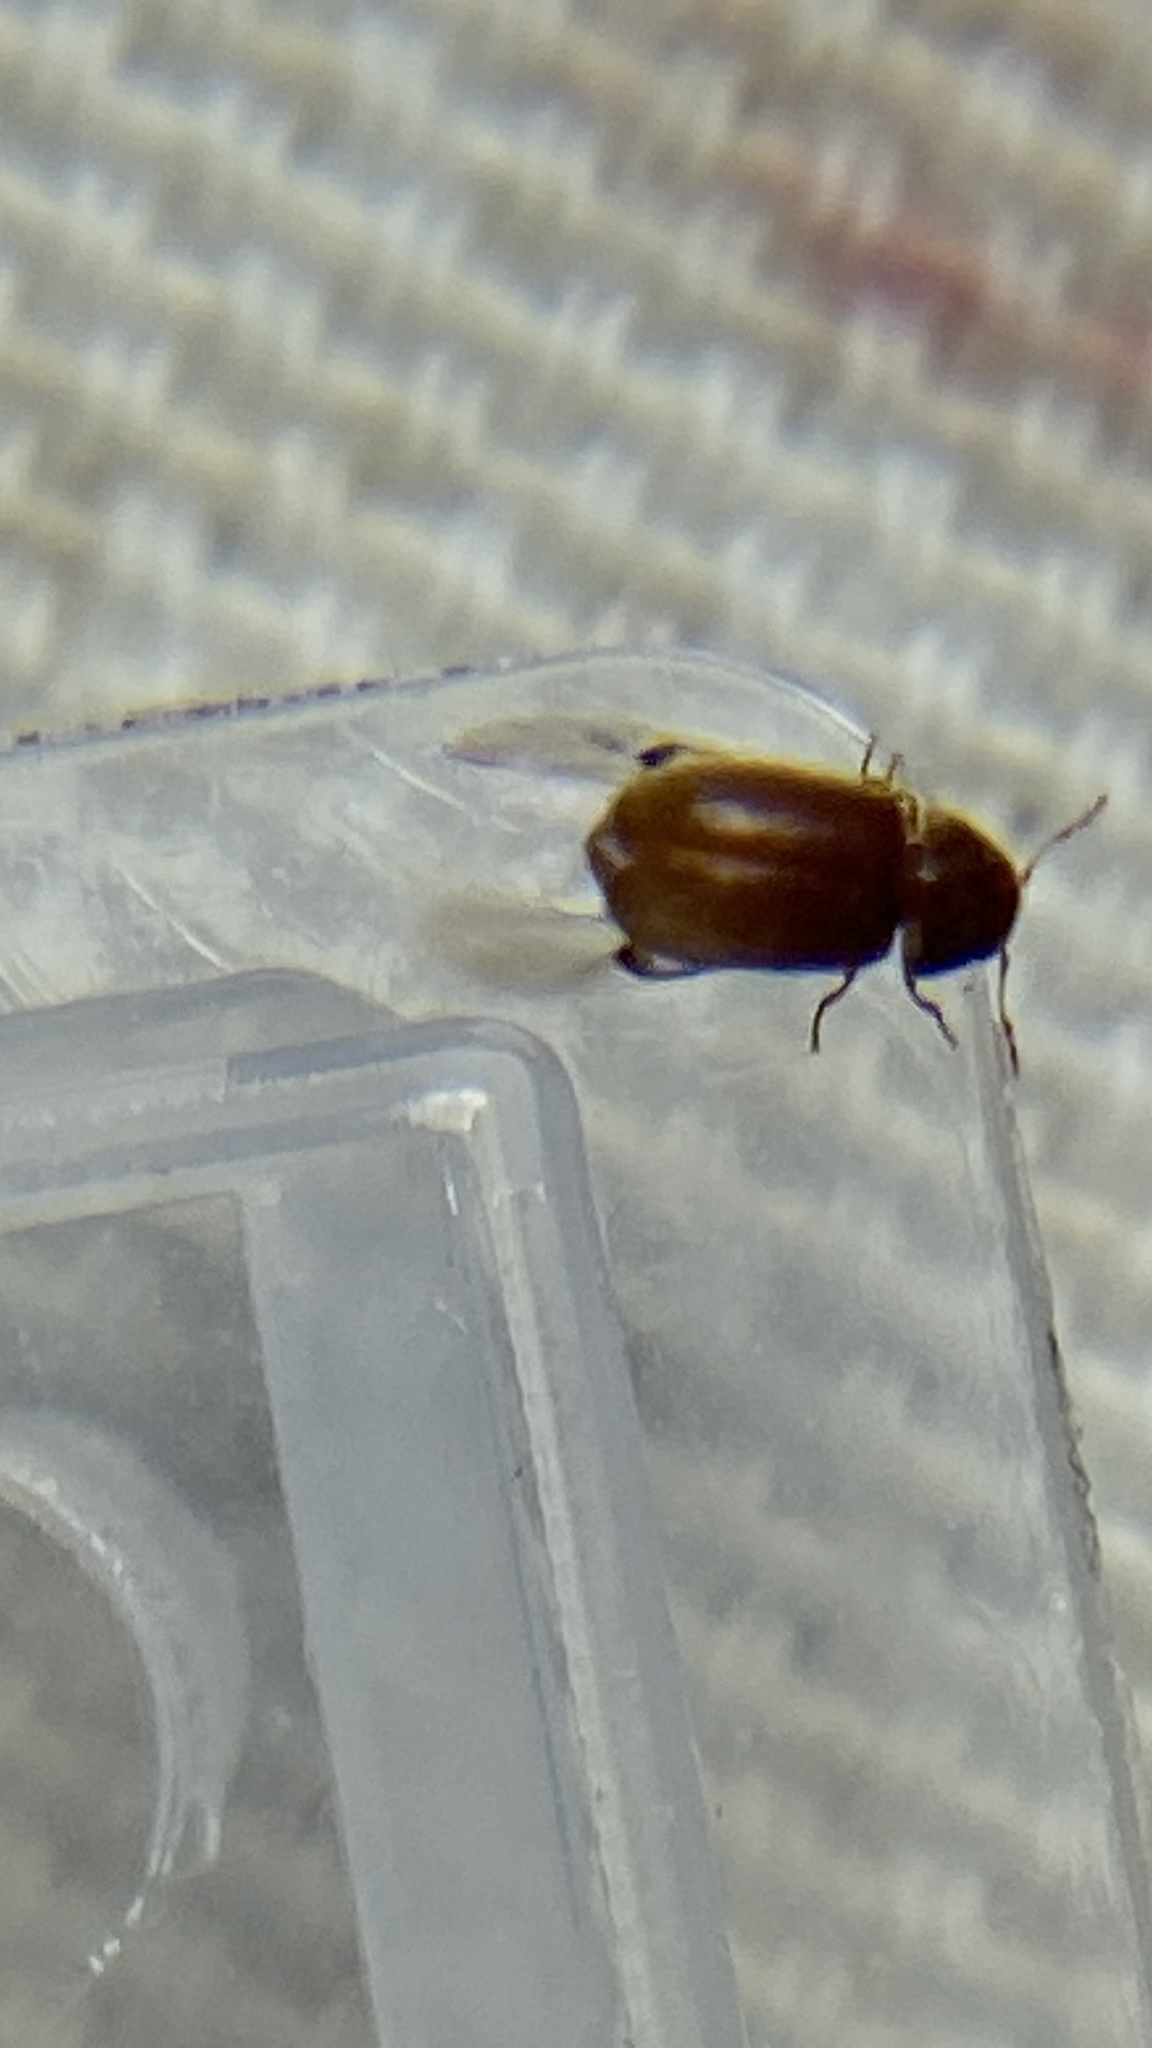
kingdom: Animalia
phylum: Arthropoda
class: Insecta
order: Coleoptera
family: Anobiidae
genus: Stegobium
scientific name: Stegobium paniceum
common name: Drugstore beetle
